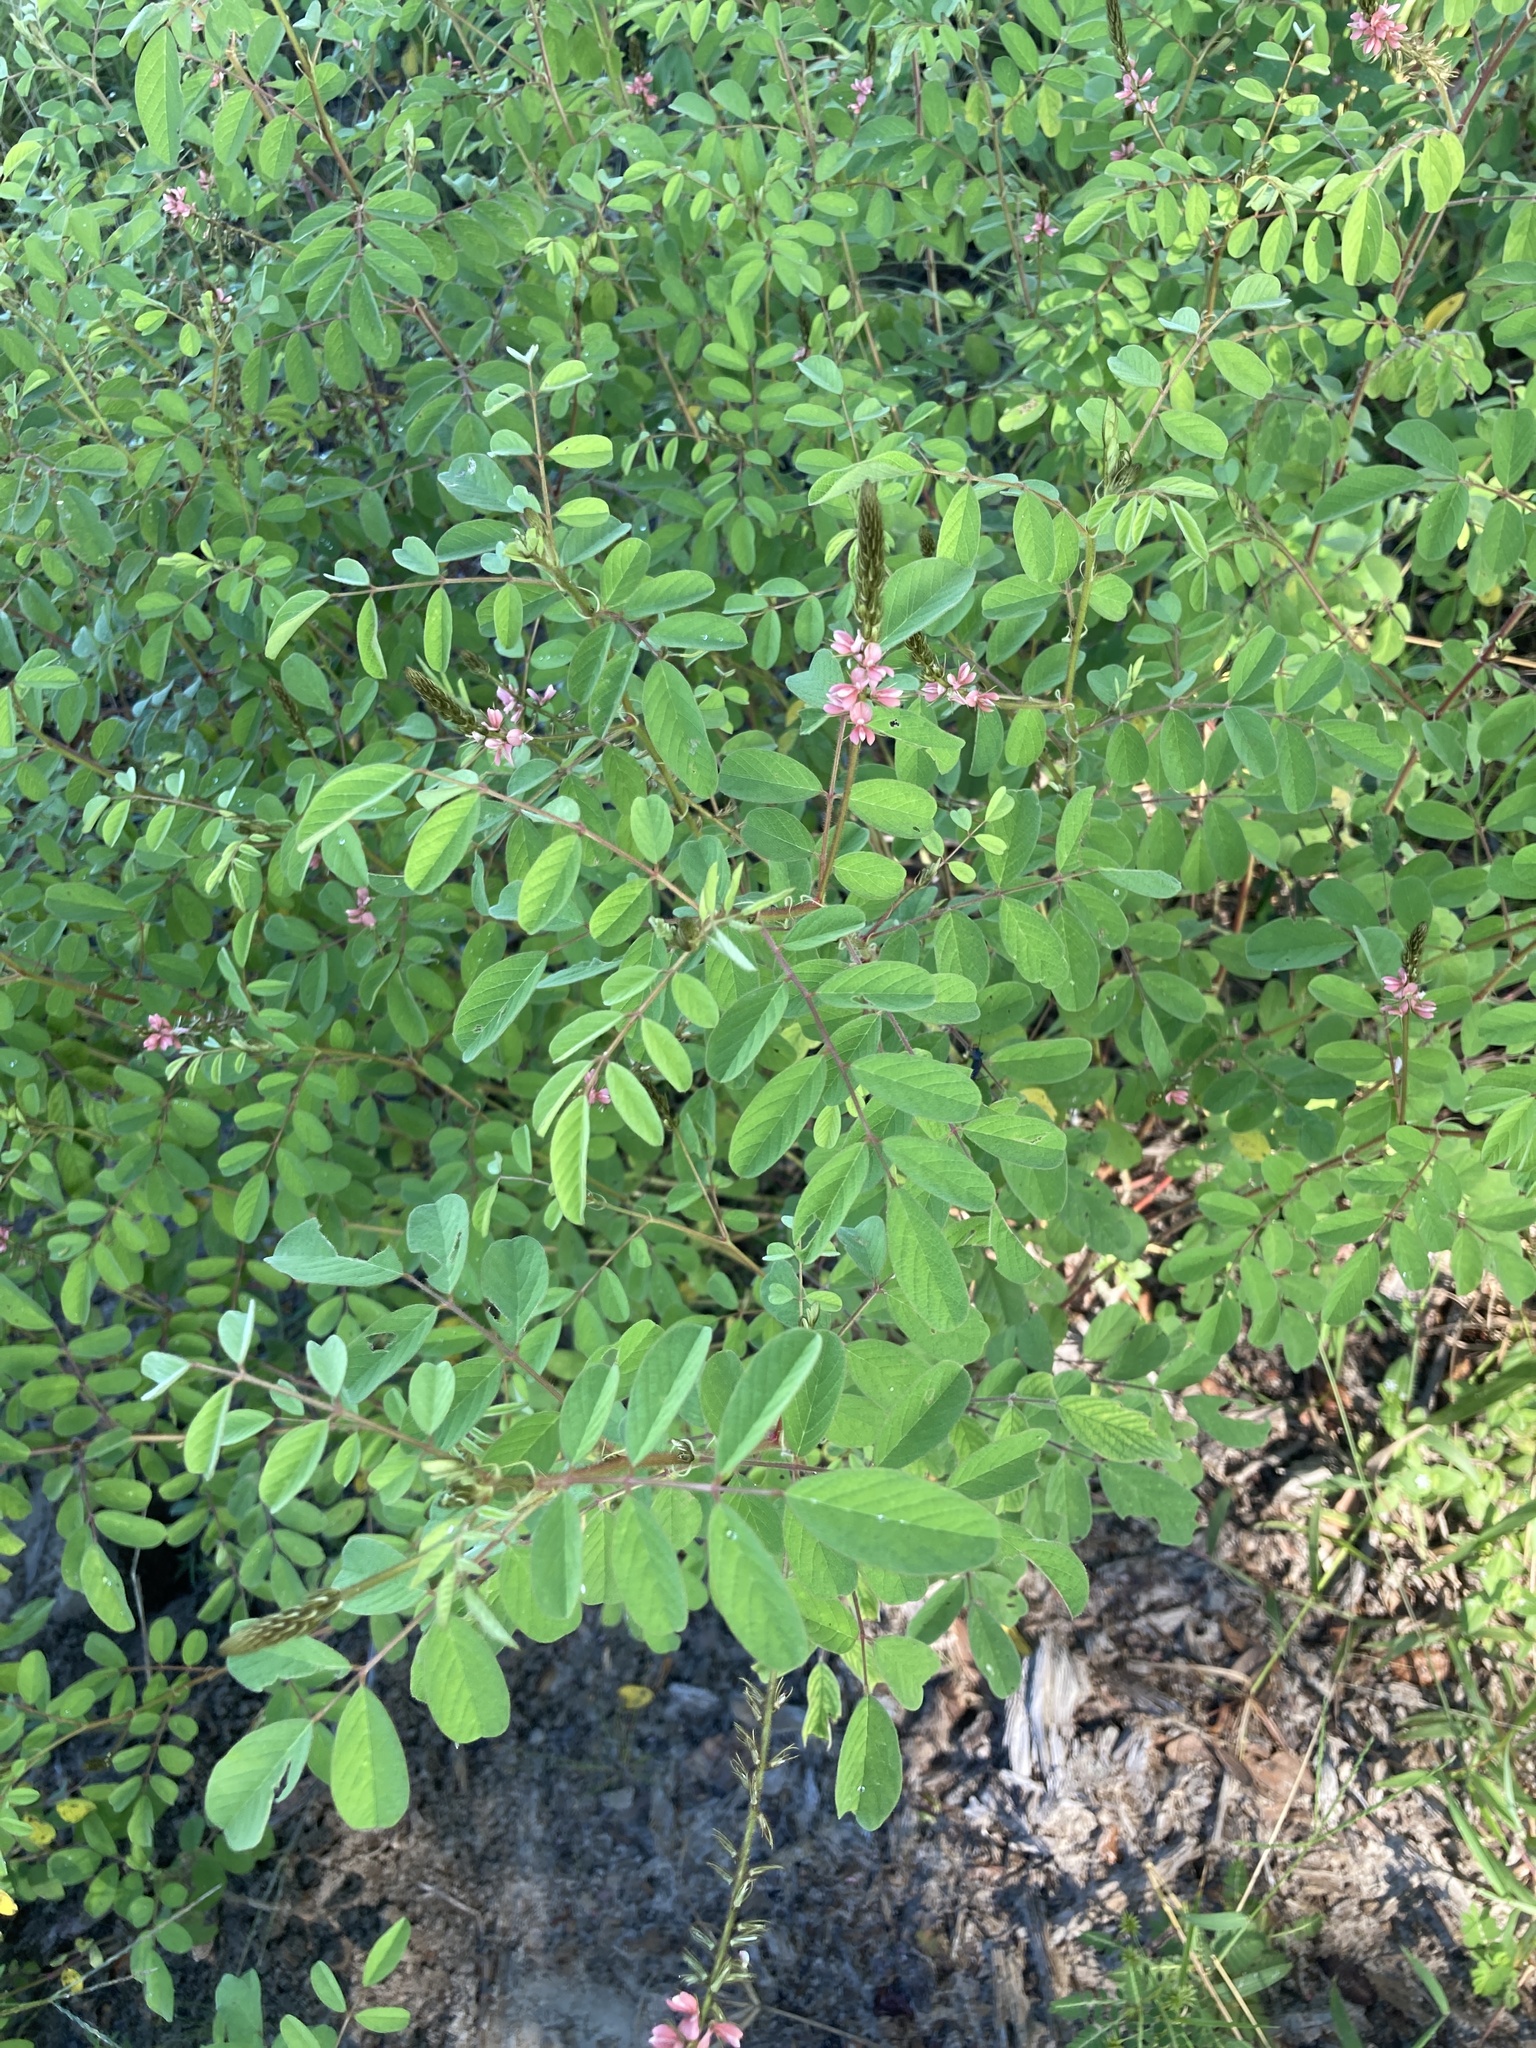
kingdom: Plantae
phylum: Tracheophyta
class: Magnoliopsida
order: Fabales
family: Fabaceae
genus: Indigofera
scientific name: Indigofera hirsuta
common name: Hairy indigo
